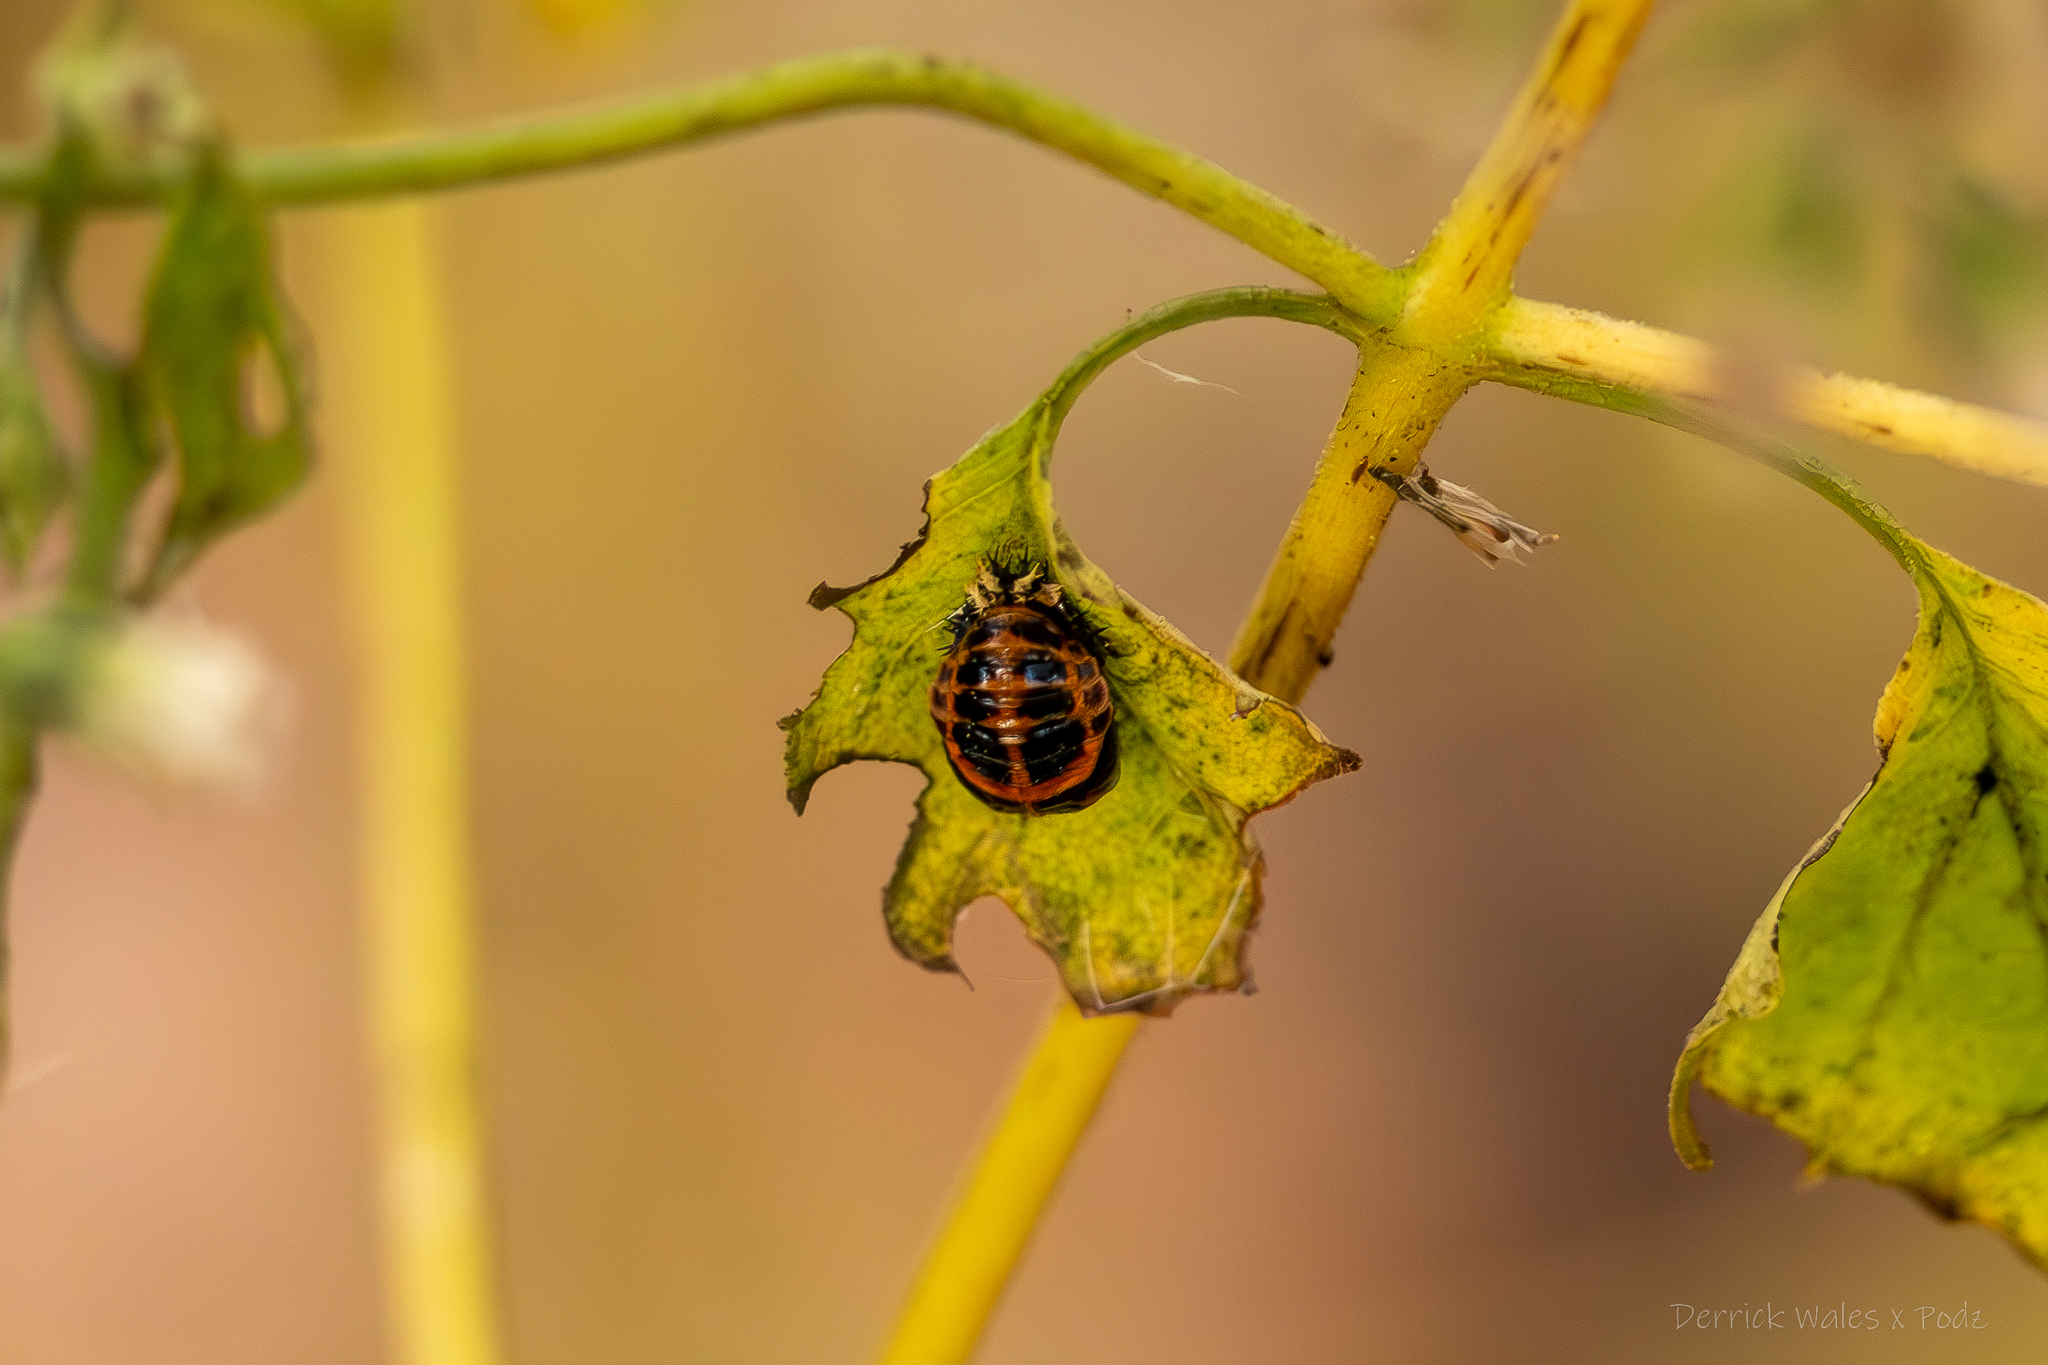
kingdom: Animalia
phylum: Arthropoda
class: Insecta
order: Coleoptera
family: Coccinellidae
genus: Harmonia
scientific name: Harmonia axyridis
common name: Harlequin ladybird
